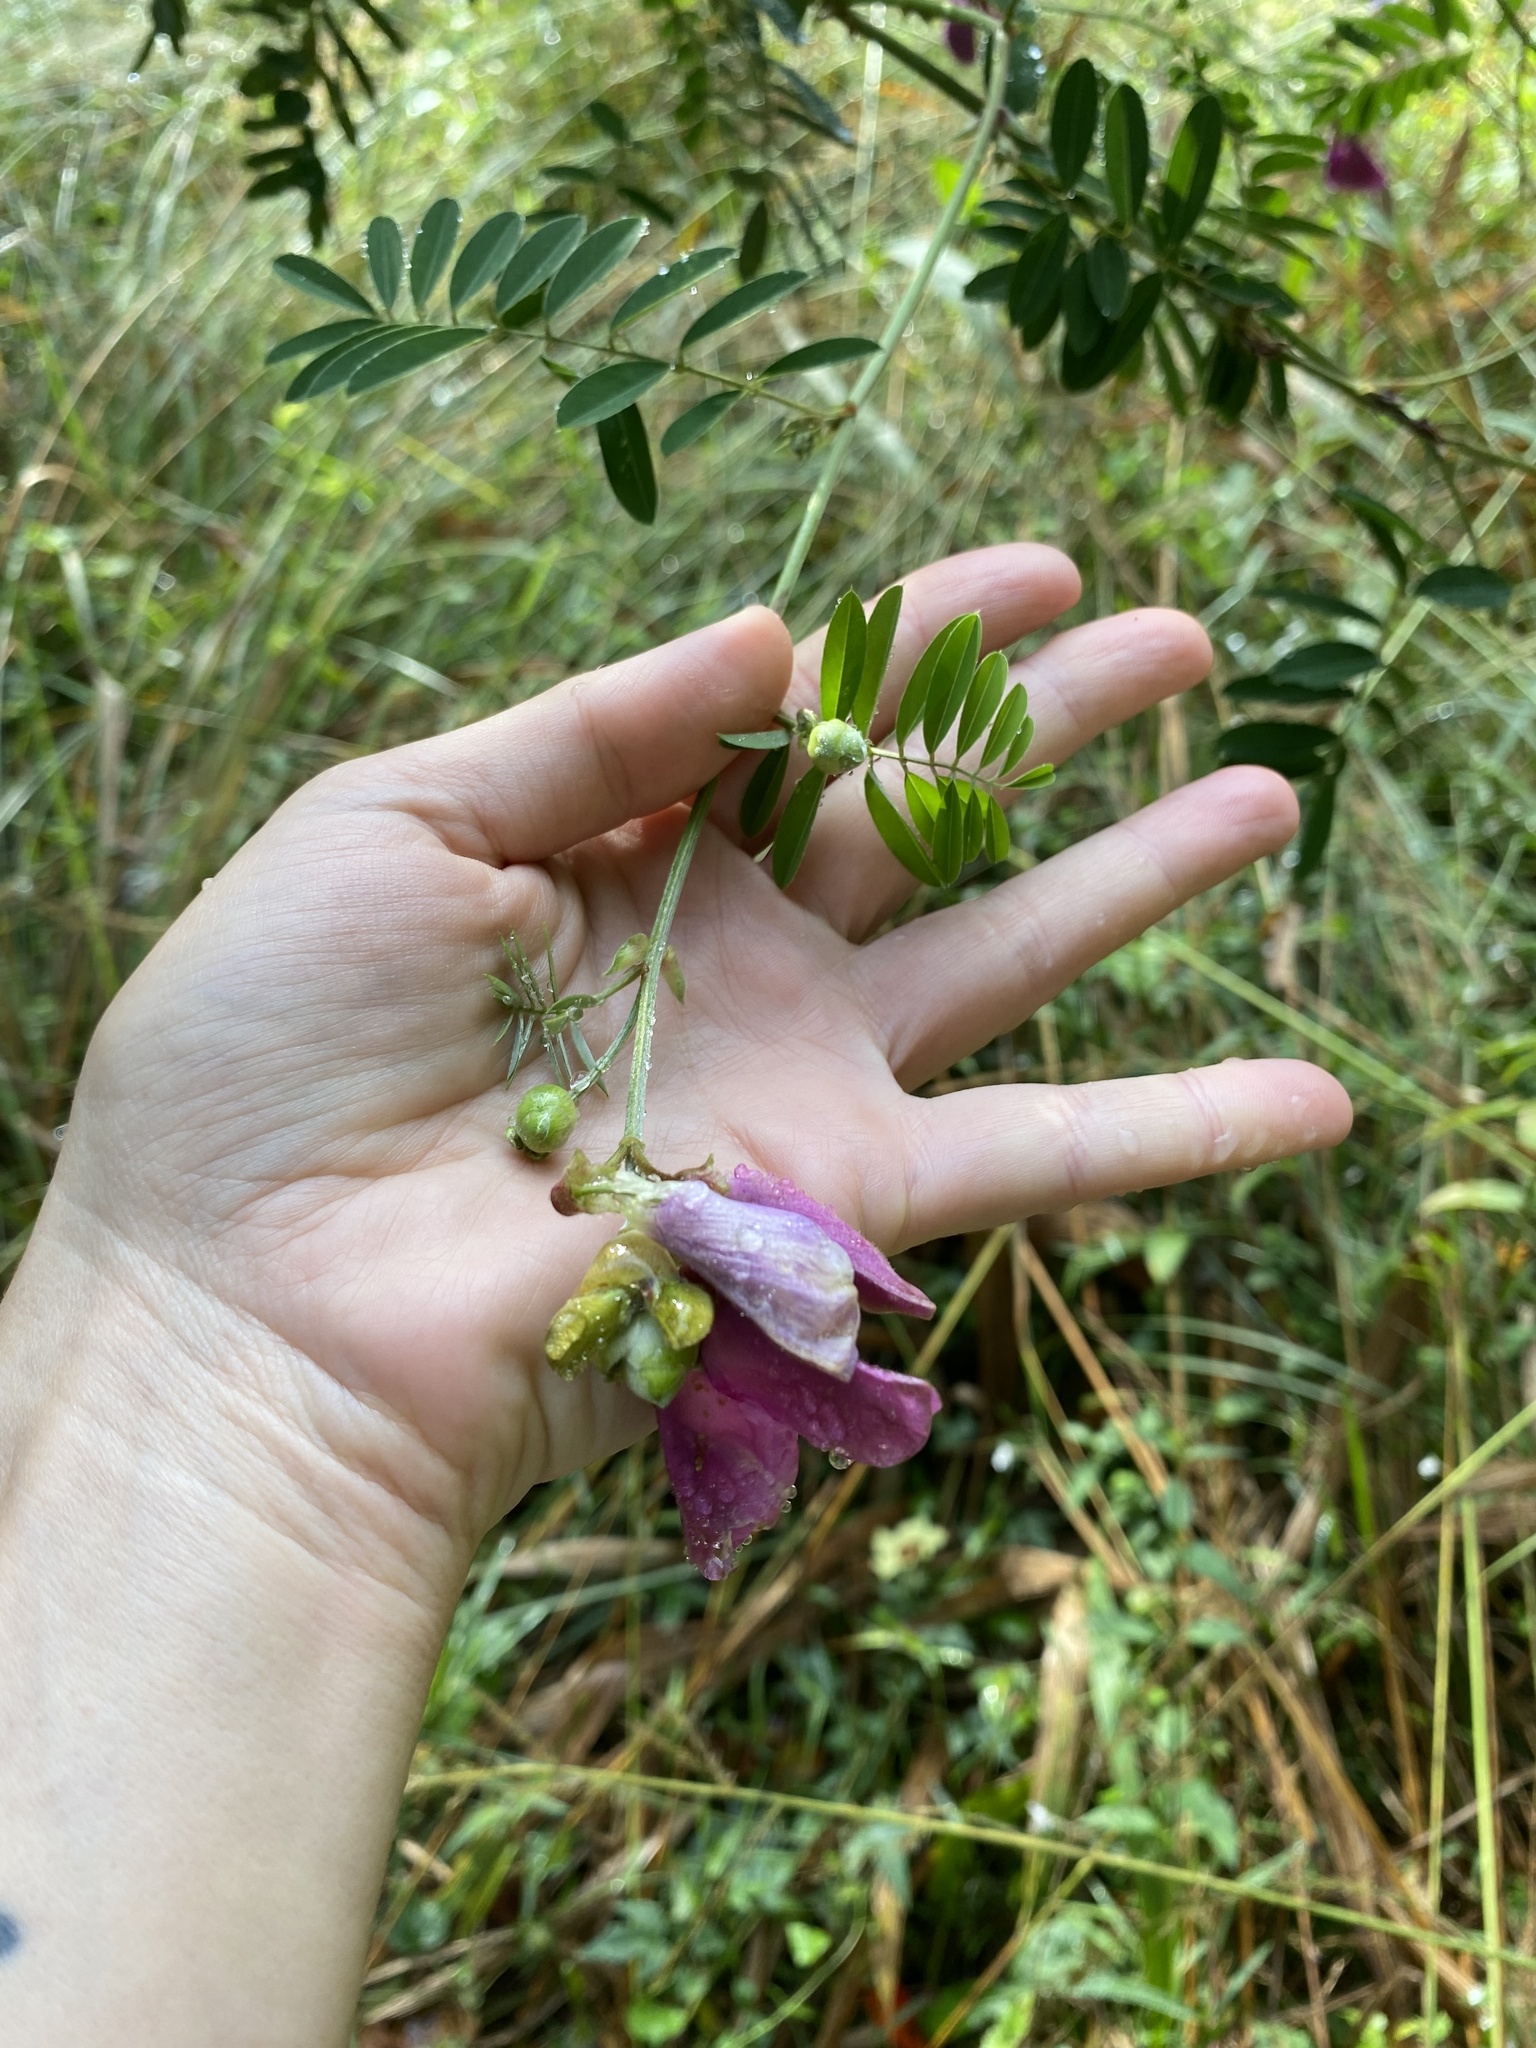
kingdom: Plantae
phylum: Tracheophyta
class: Magnoliopsida
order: Fabales
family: Fabaceae
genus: Tephrosia
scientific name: Tephrosia shiluwanensis
